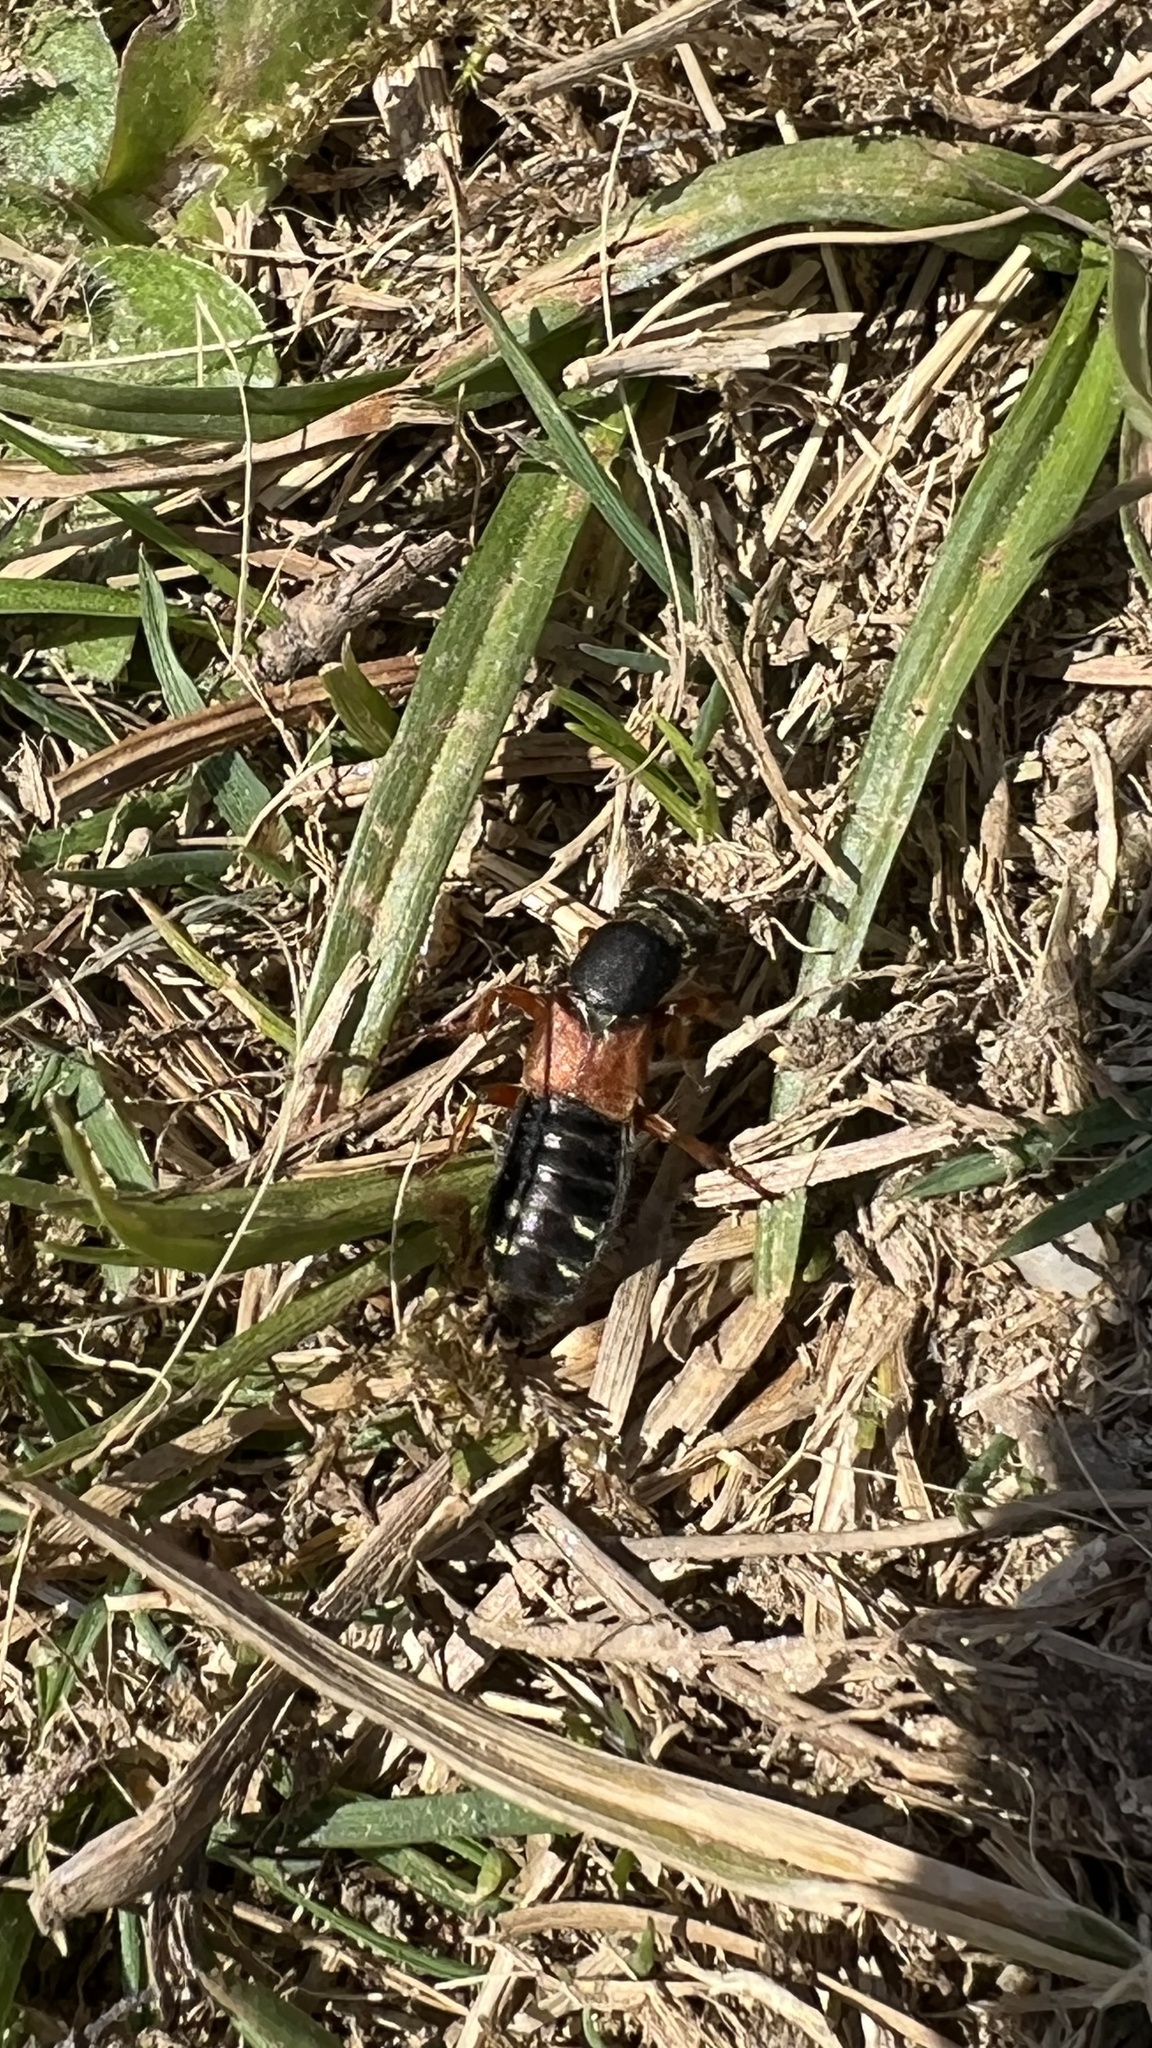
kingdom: Animalia
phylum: Arthropoda
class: Insecta
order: Coleoptera
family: Staphylinidae
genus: Staphylinus
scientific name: Staphylinus erythropterus
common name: Staph beetle
